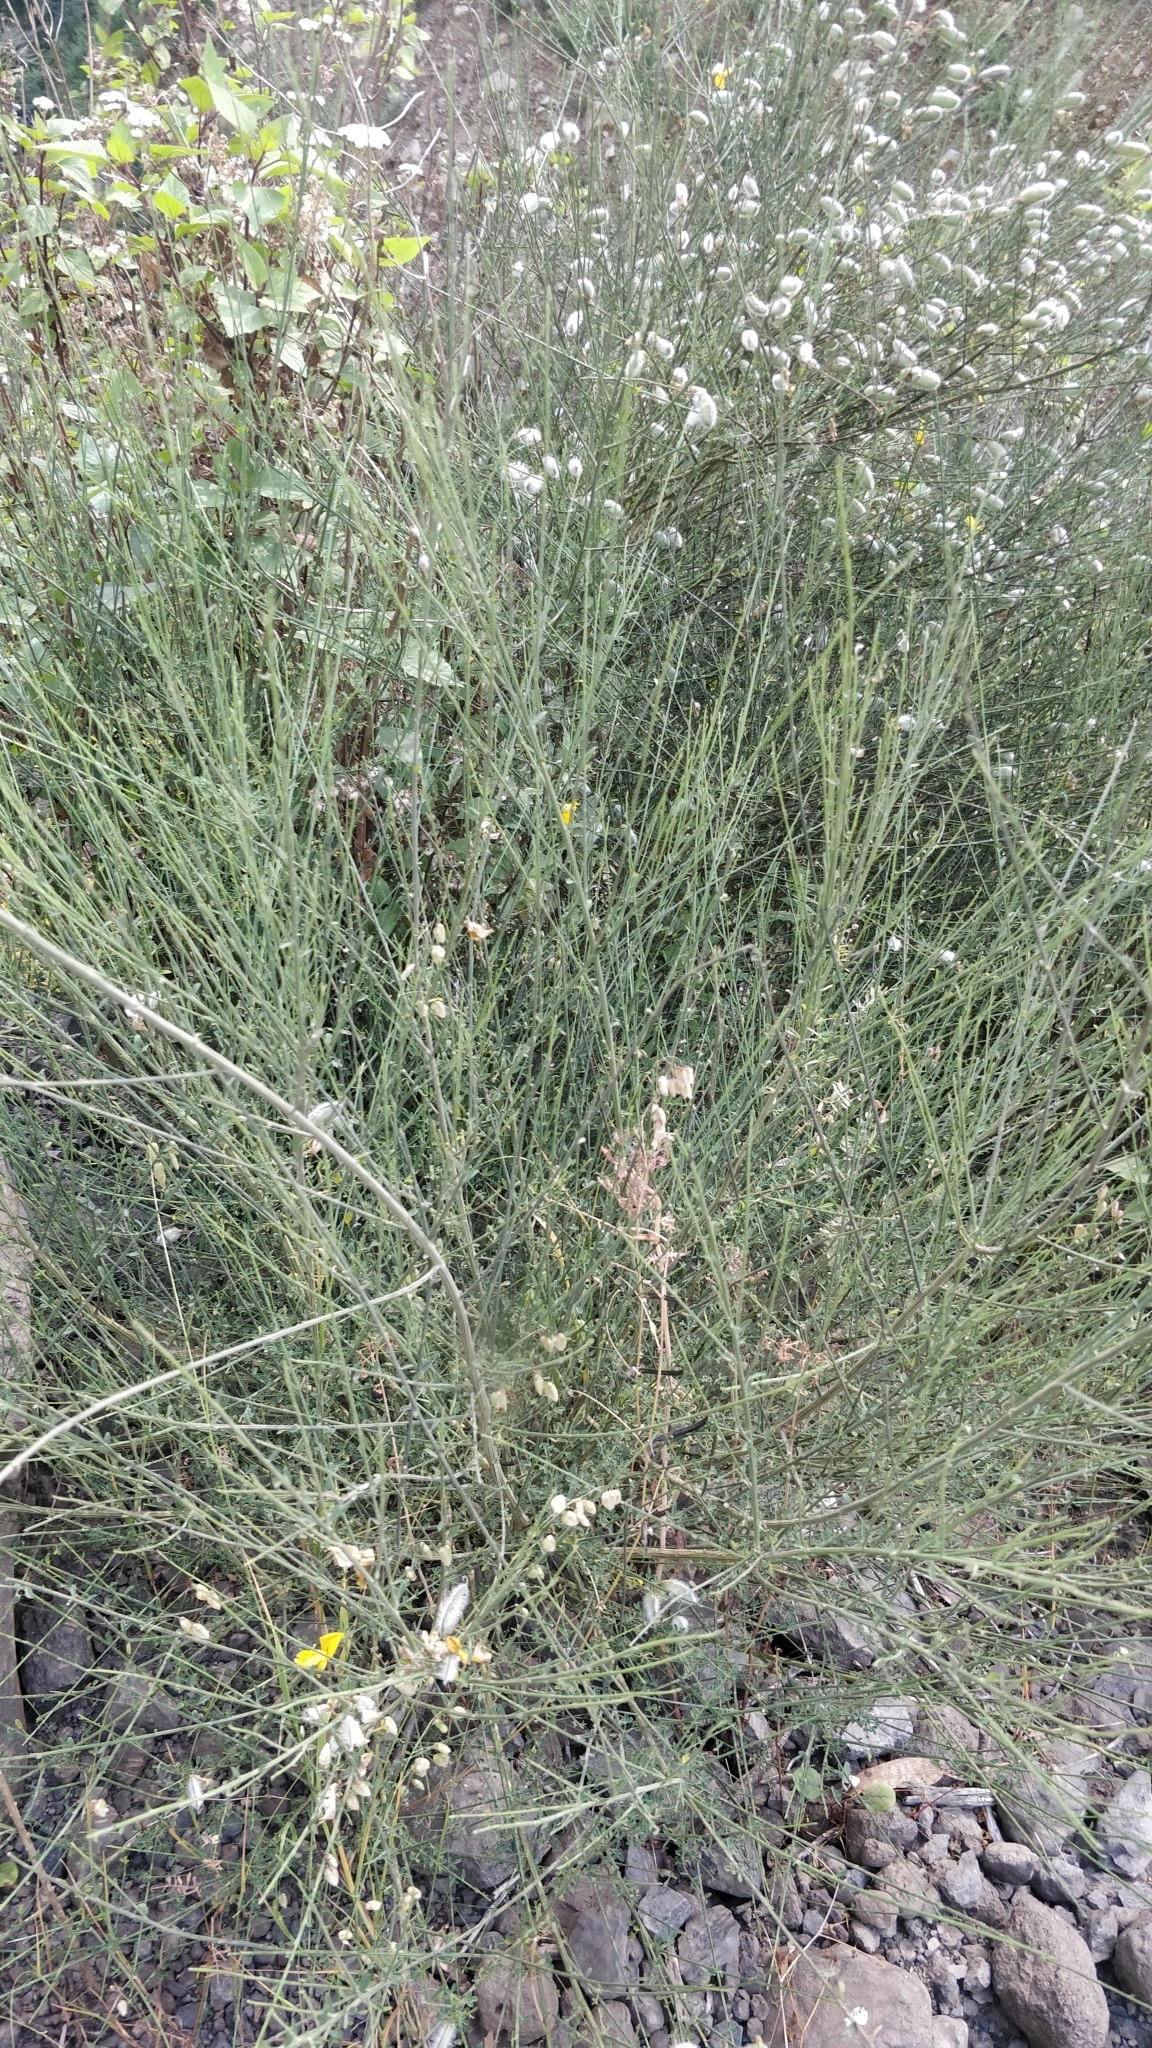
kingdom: Plantae
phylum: Tracheophyta
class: Magnoliopsida
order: Fabales
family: Fabaceae
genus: Cytisus
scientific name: Cytisus striatus
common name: Hairy-fruited broom
